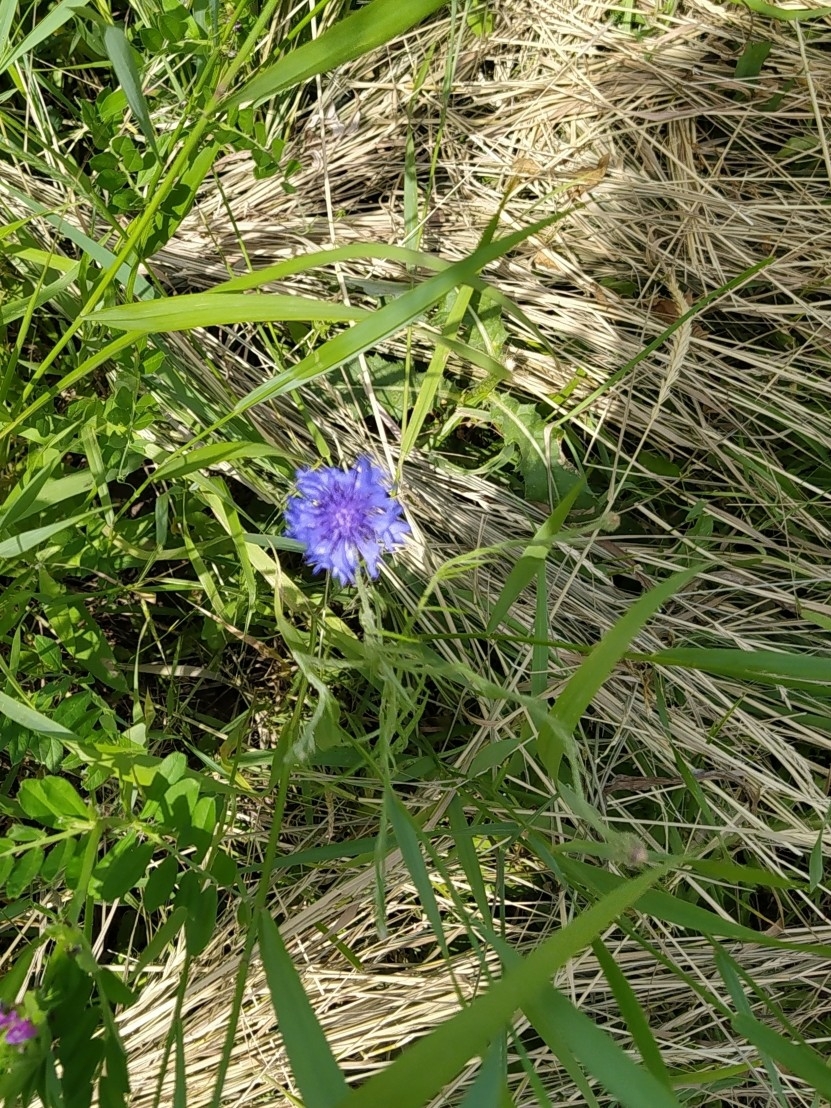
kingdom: Plantae
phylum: Tracheophyta
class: Magnoliopsida
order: Asterales
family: Asteraceae
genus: Centaurea
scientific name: Centaurea cyanus
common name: Cornflower
